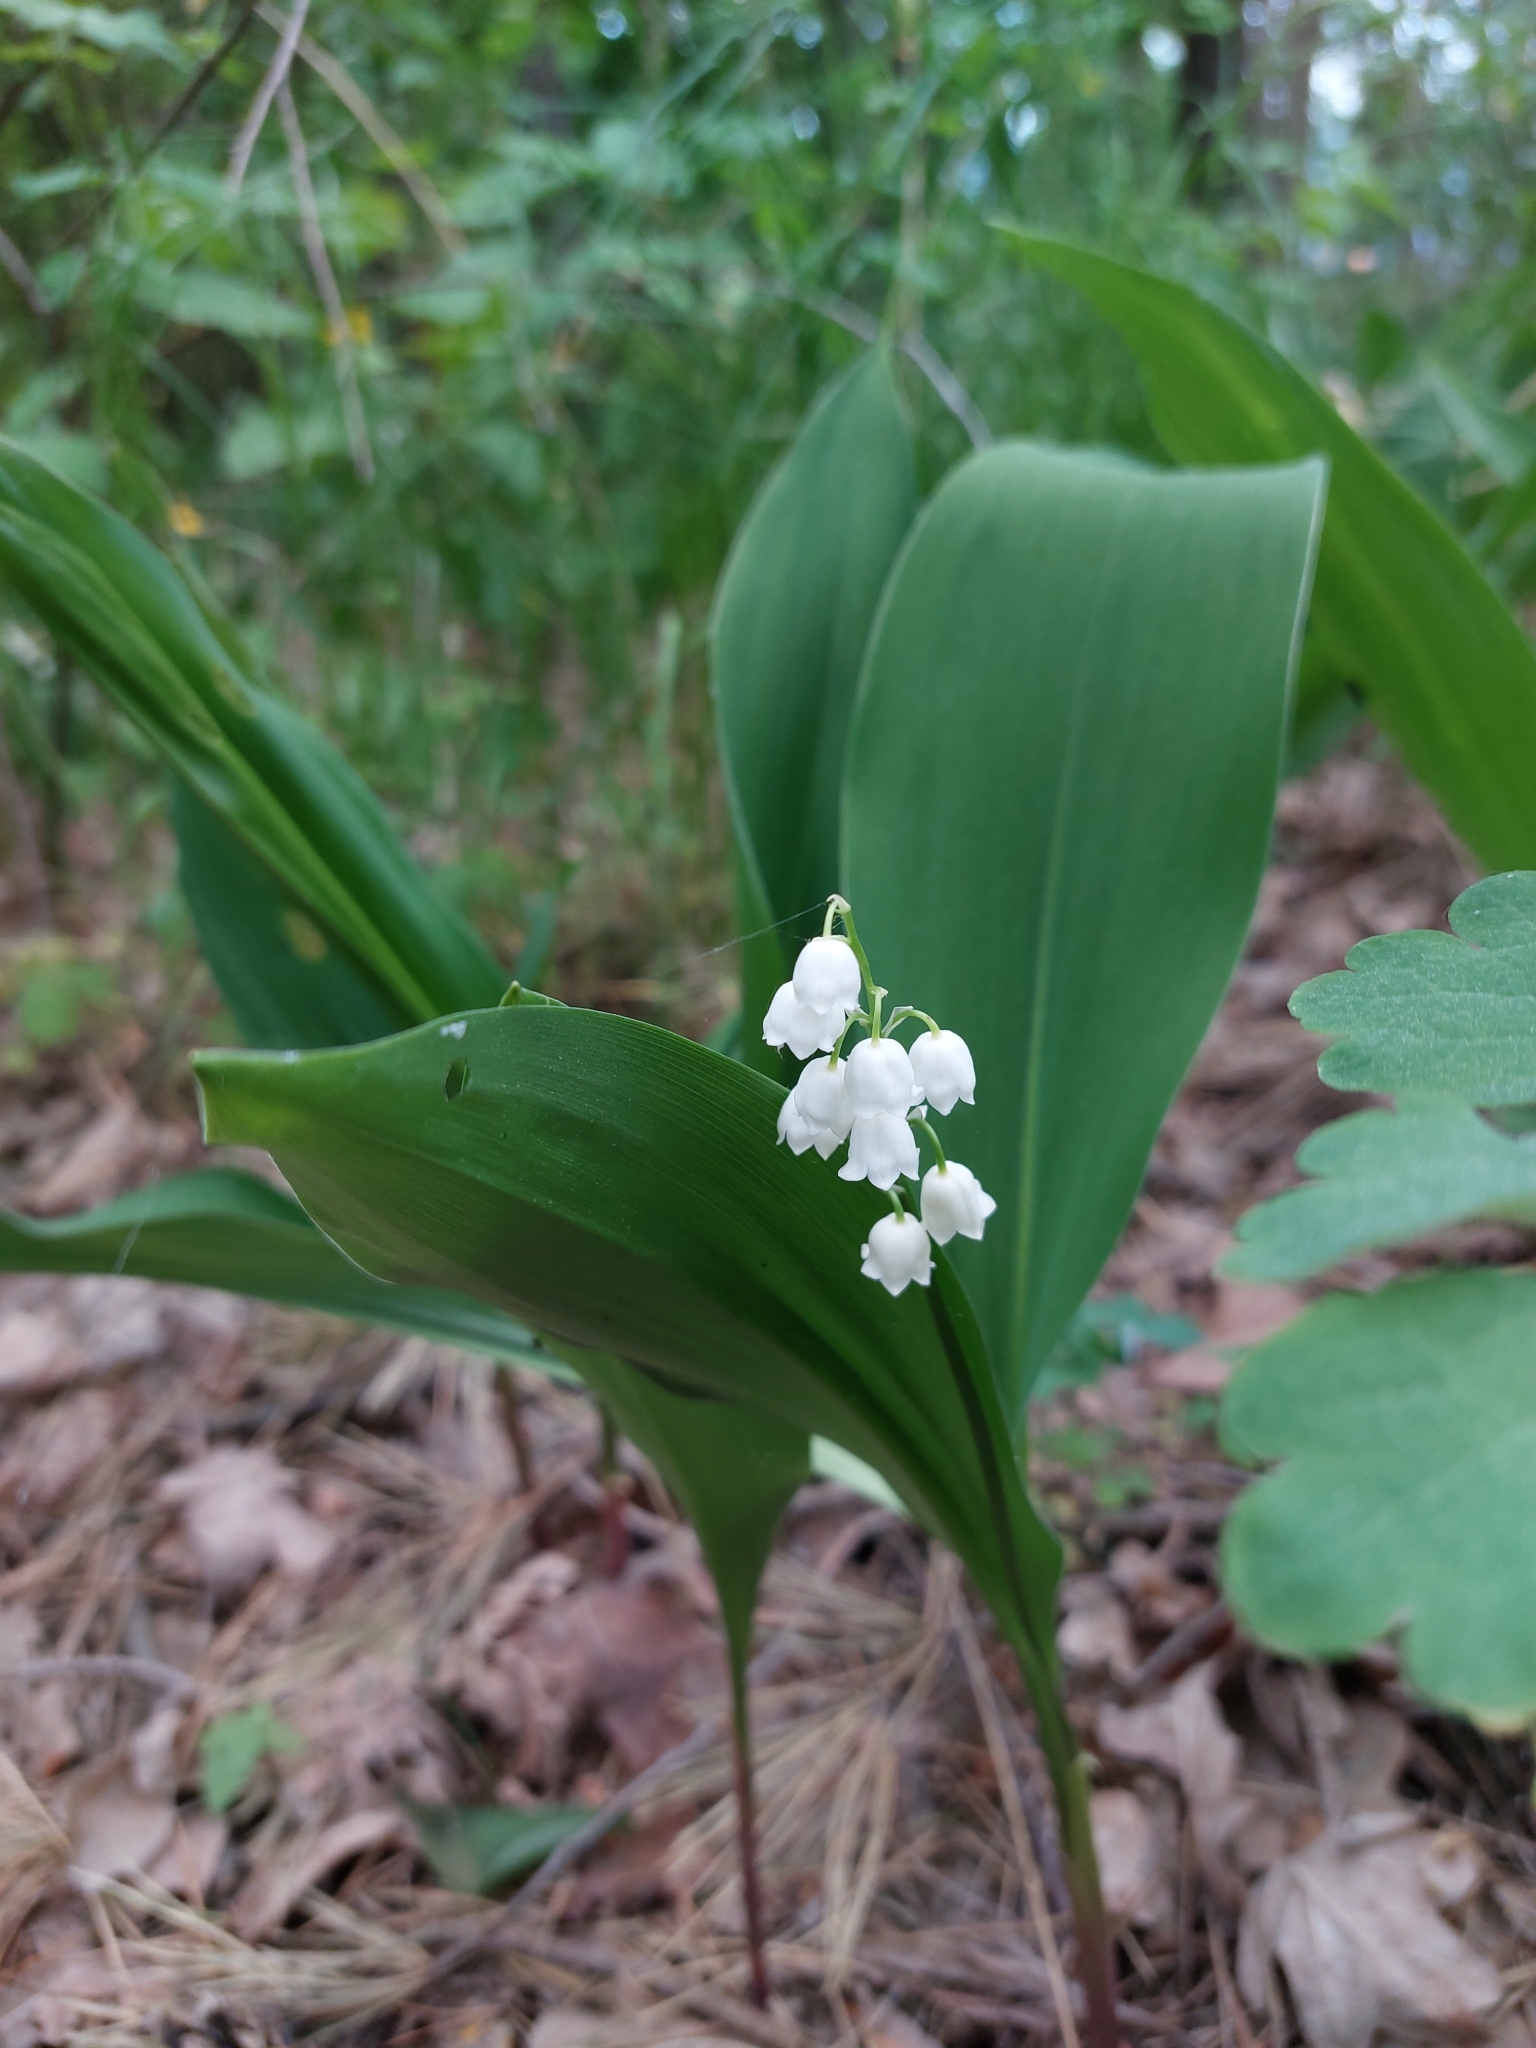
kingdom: Plantae
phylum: Tracheophyta
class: Liliopsida
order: Asparagales
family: Asparagaceae
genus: Convallaria
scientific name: Convallaria majalis
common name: Lily-of-the-valley
